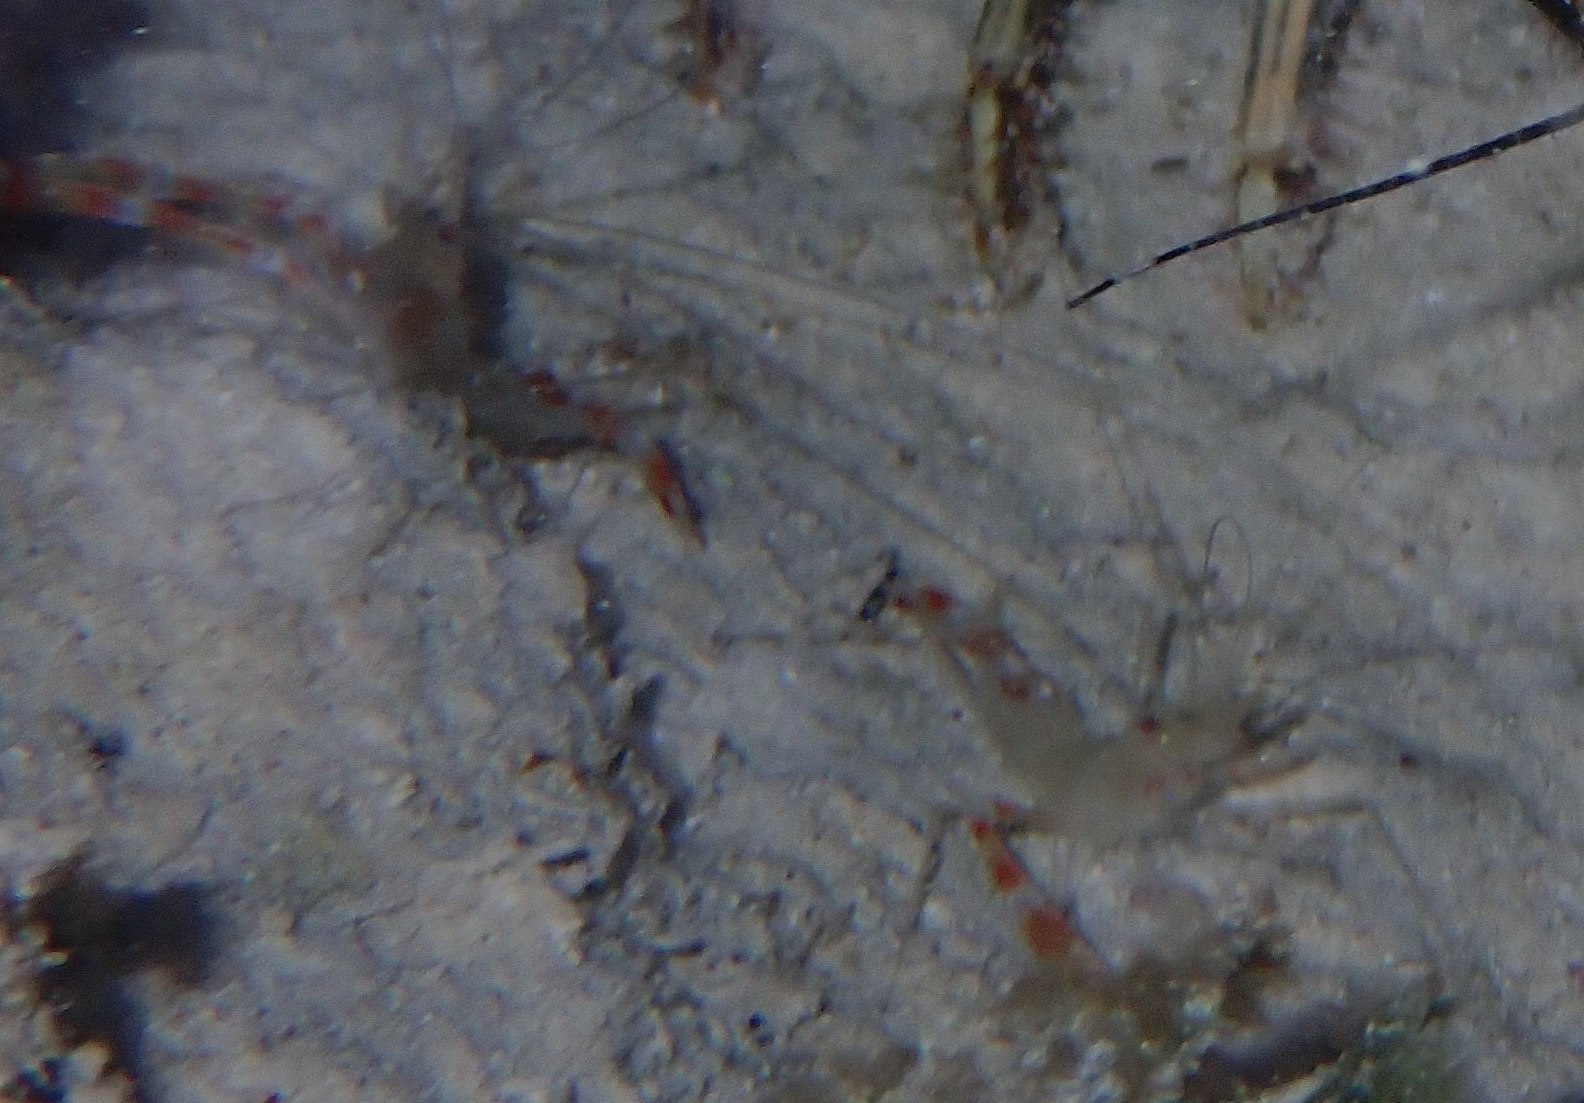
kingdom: Animalia
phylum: Arthropoda
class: Malacostraca
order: Decapoda
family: Stenopodidae
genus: Stenopus
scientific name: Stenopus scutellatus
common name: Golden coral shrimp
